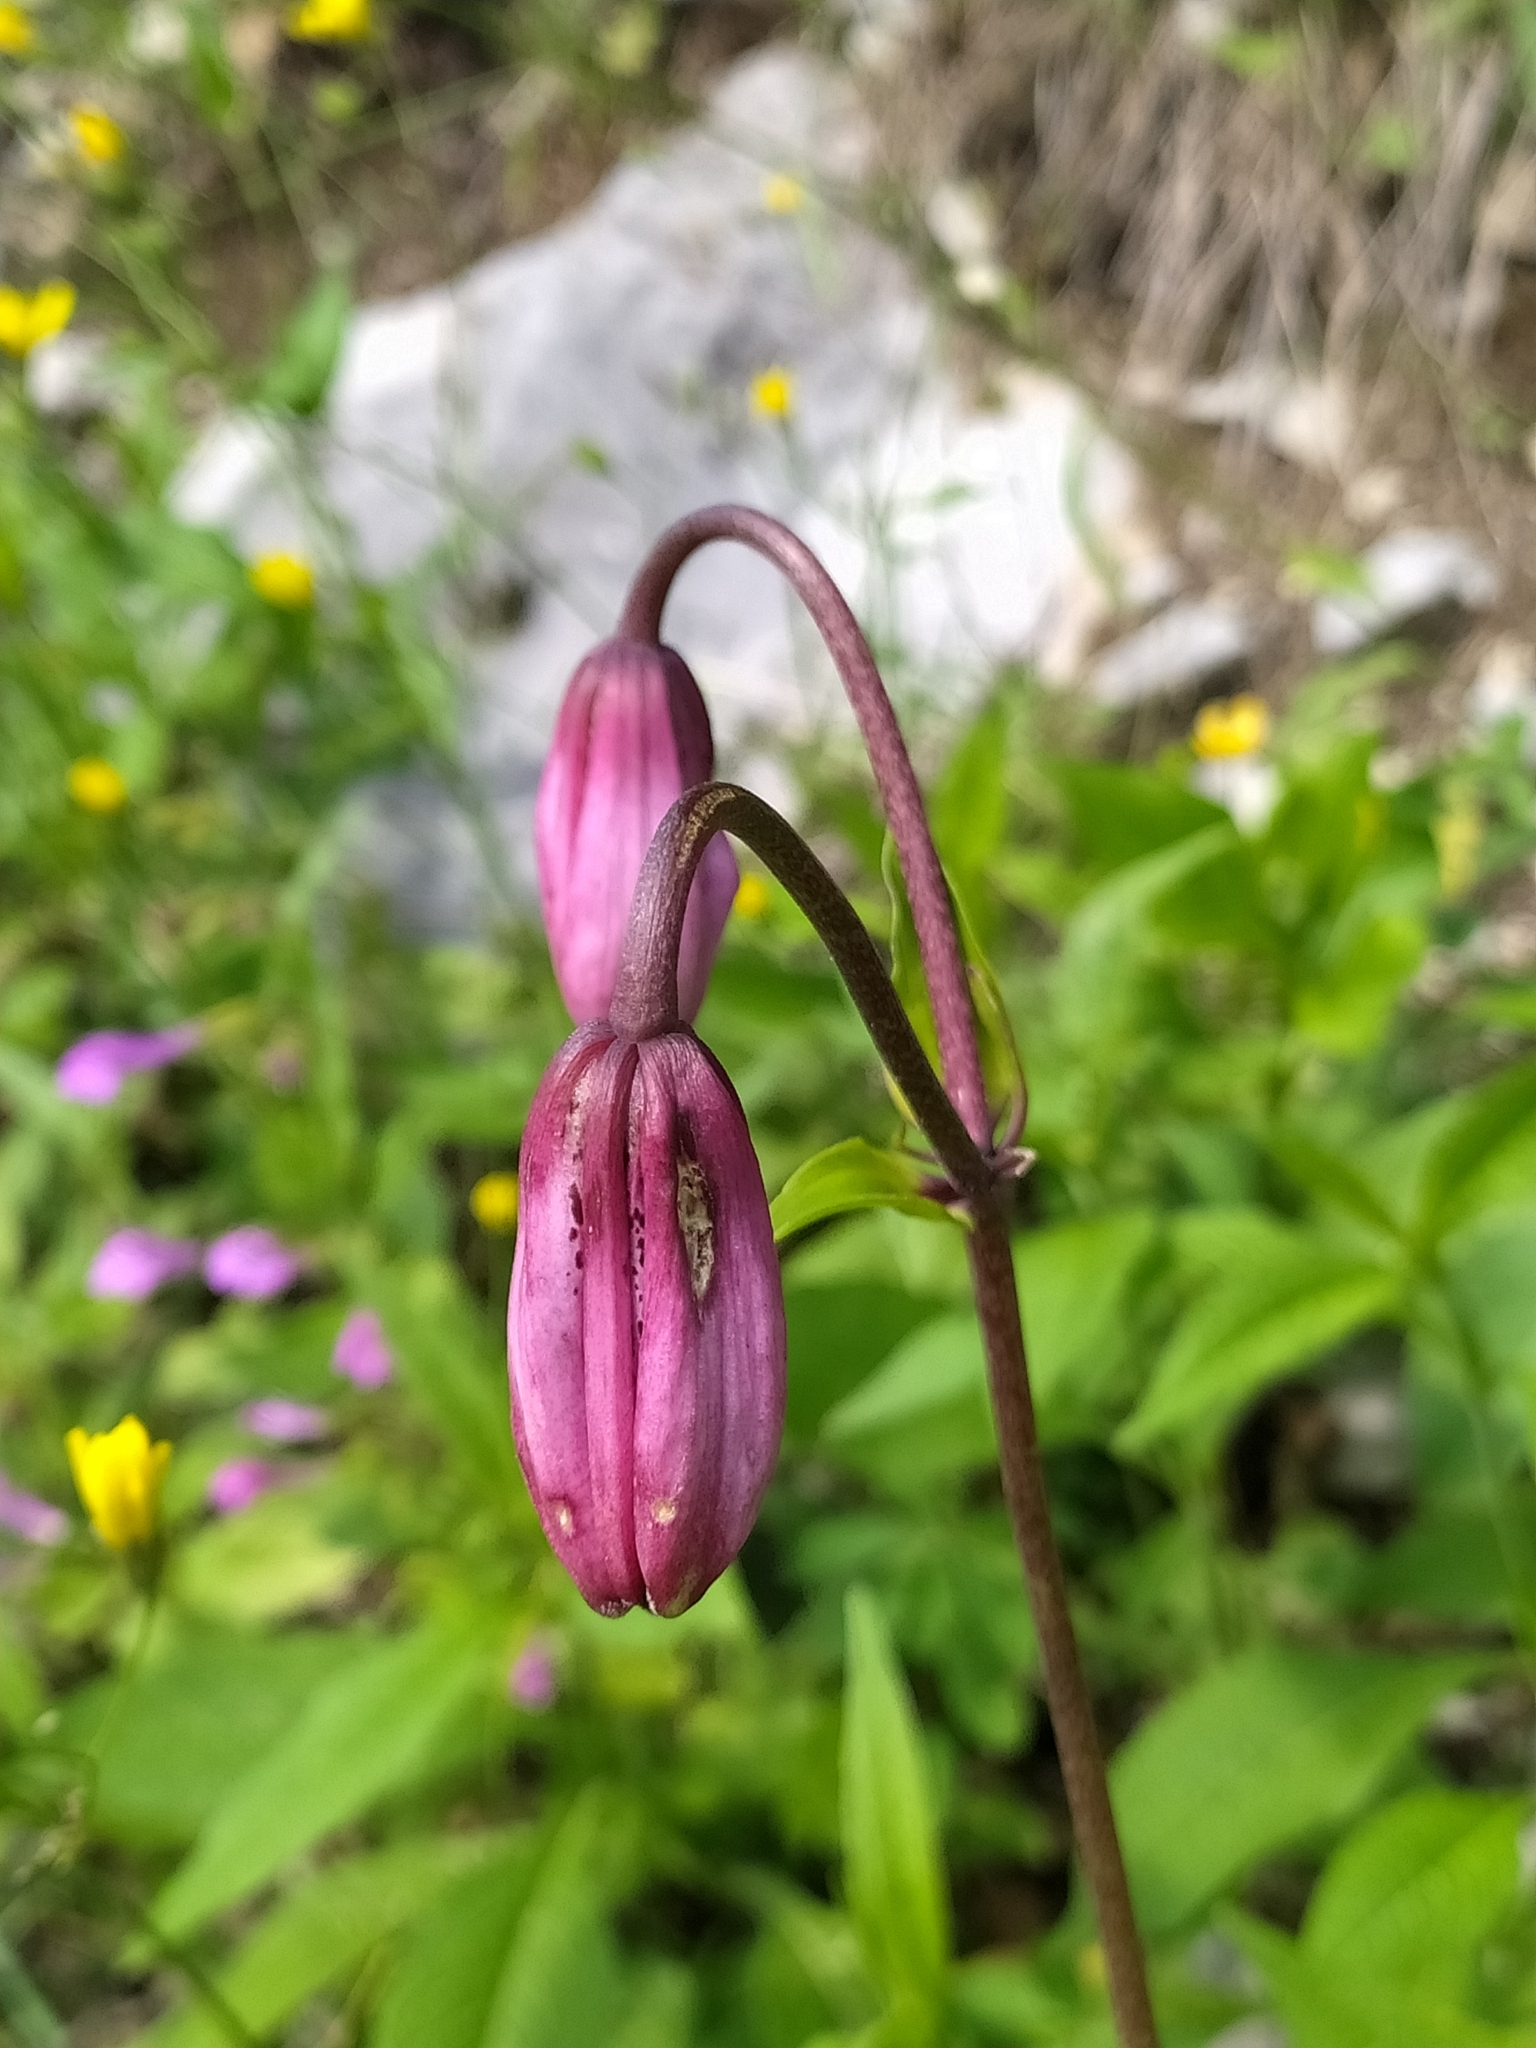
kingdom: Plantae
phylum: Tracheophyta
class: Liliopsida
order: Liliales
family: Liliaceae
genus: Lilium
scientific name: Lilium martagon
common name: Martagon lily
